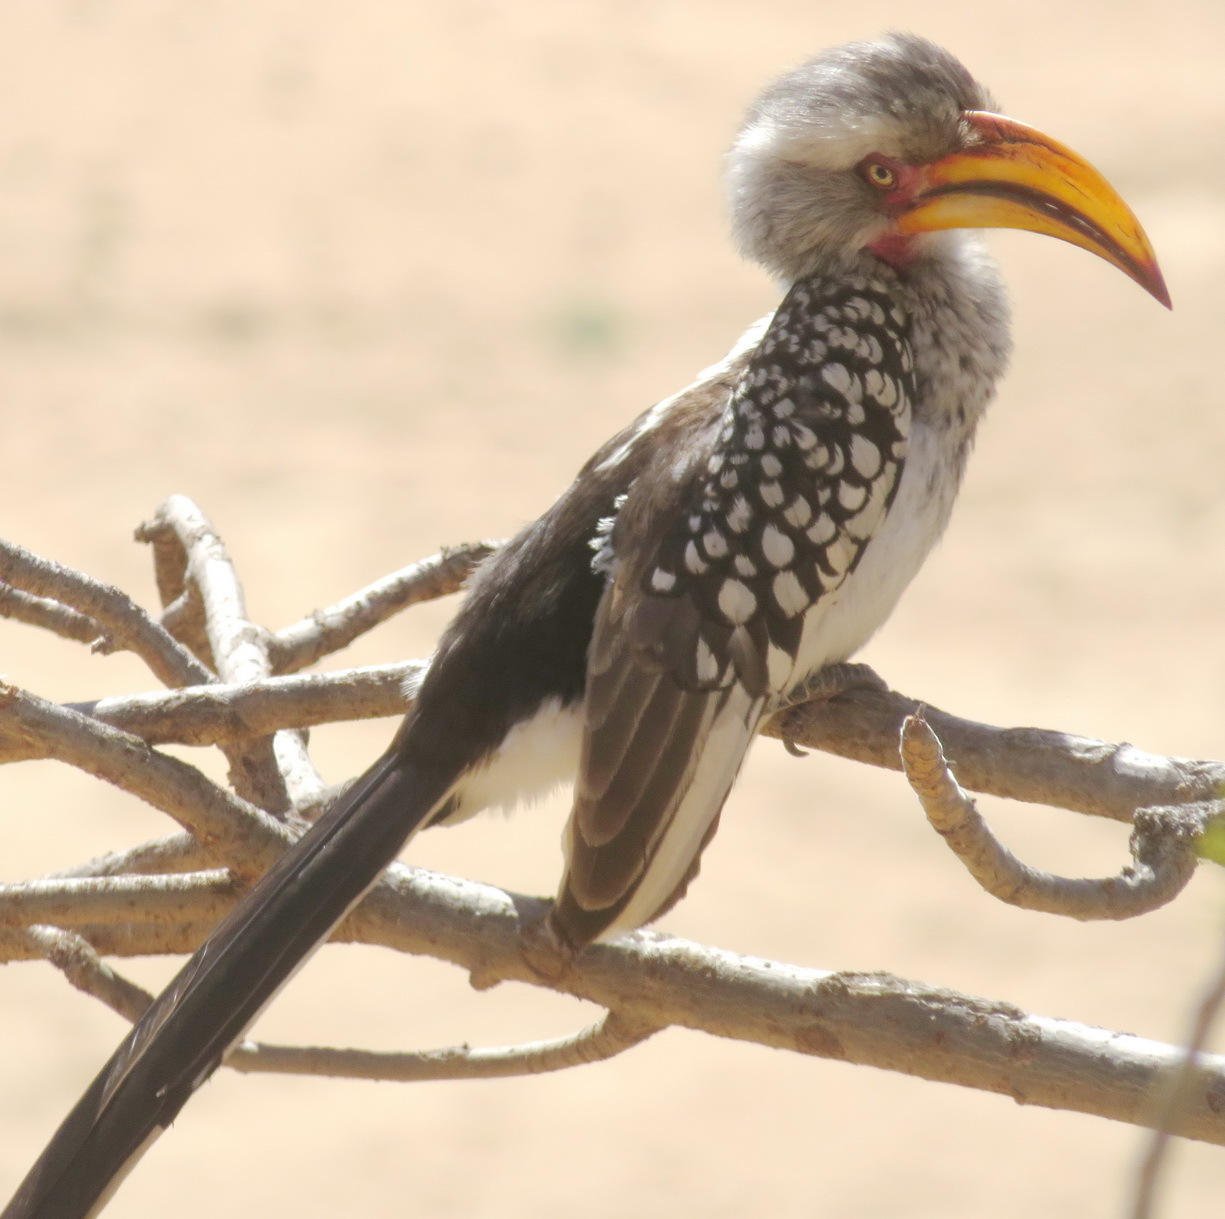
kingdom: Animalia
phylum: Chordata
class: Aves
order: Bucerotiformes
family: Bucerotidae
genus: Tockus
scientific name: Tockus leucomelas
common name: Southern yellow-billed hornbill
